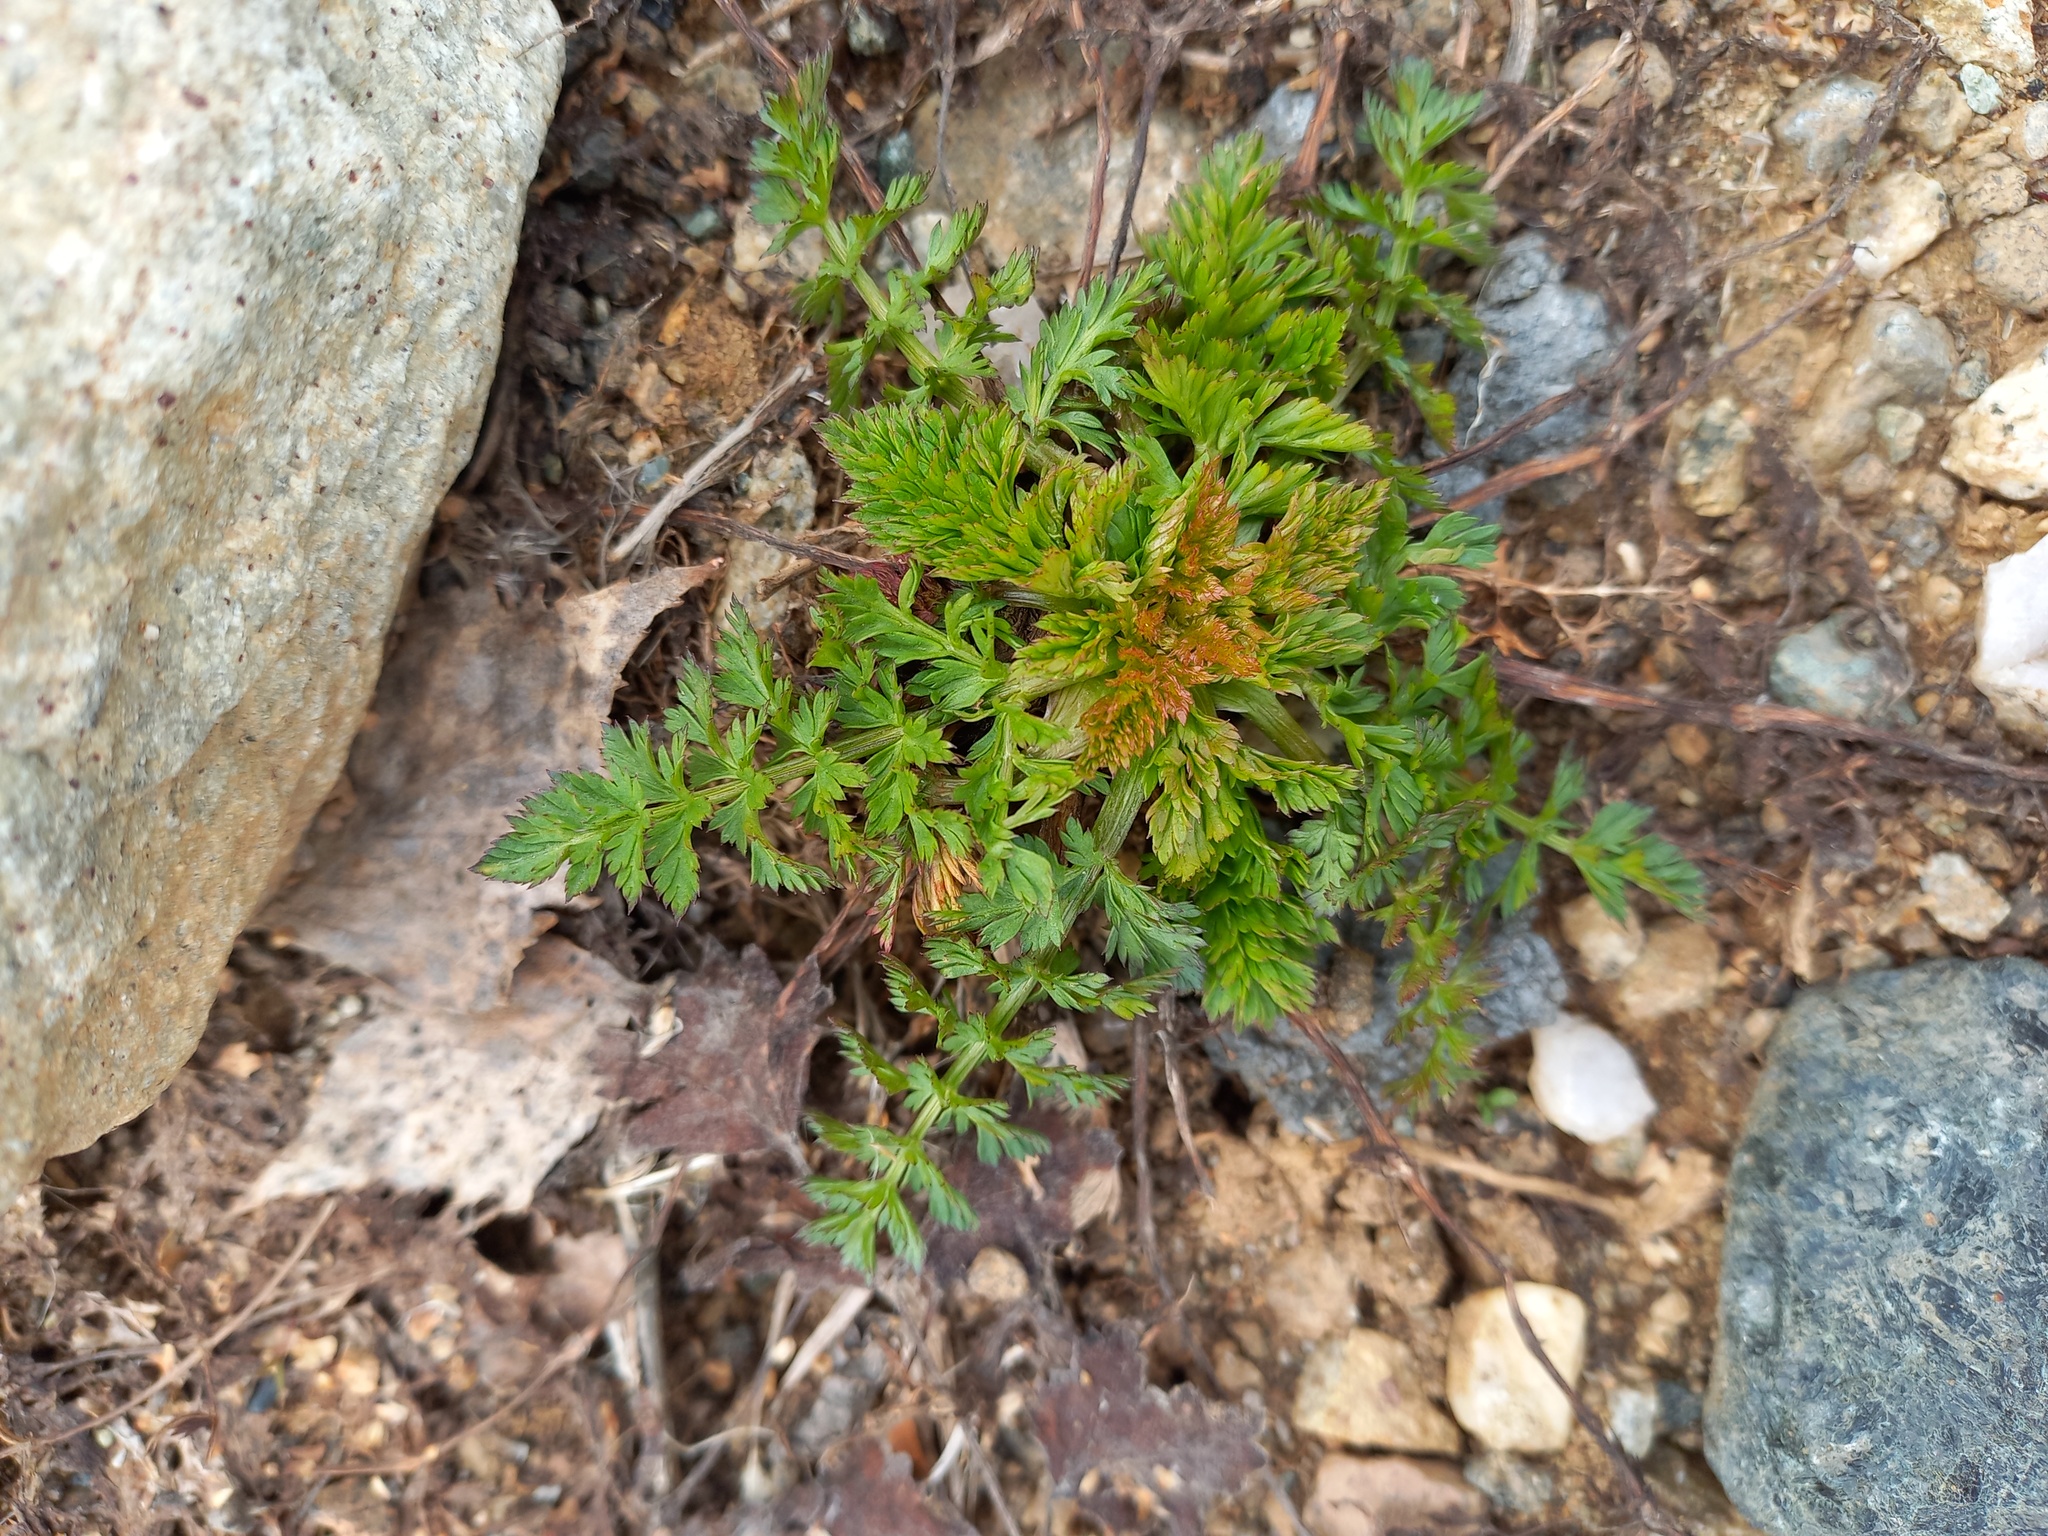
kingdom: Plantae
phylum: Tracheophyta
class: Magnoliopsida
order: Apiales
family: Apiaceae
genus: Carum
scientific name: Carum carvi
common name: Caraway
